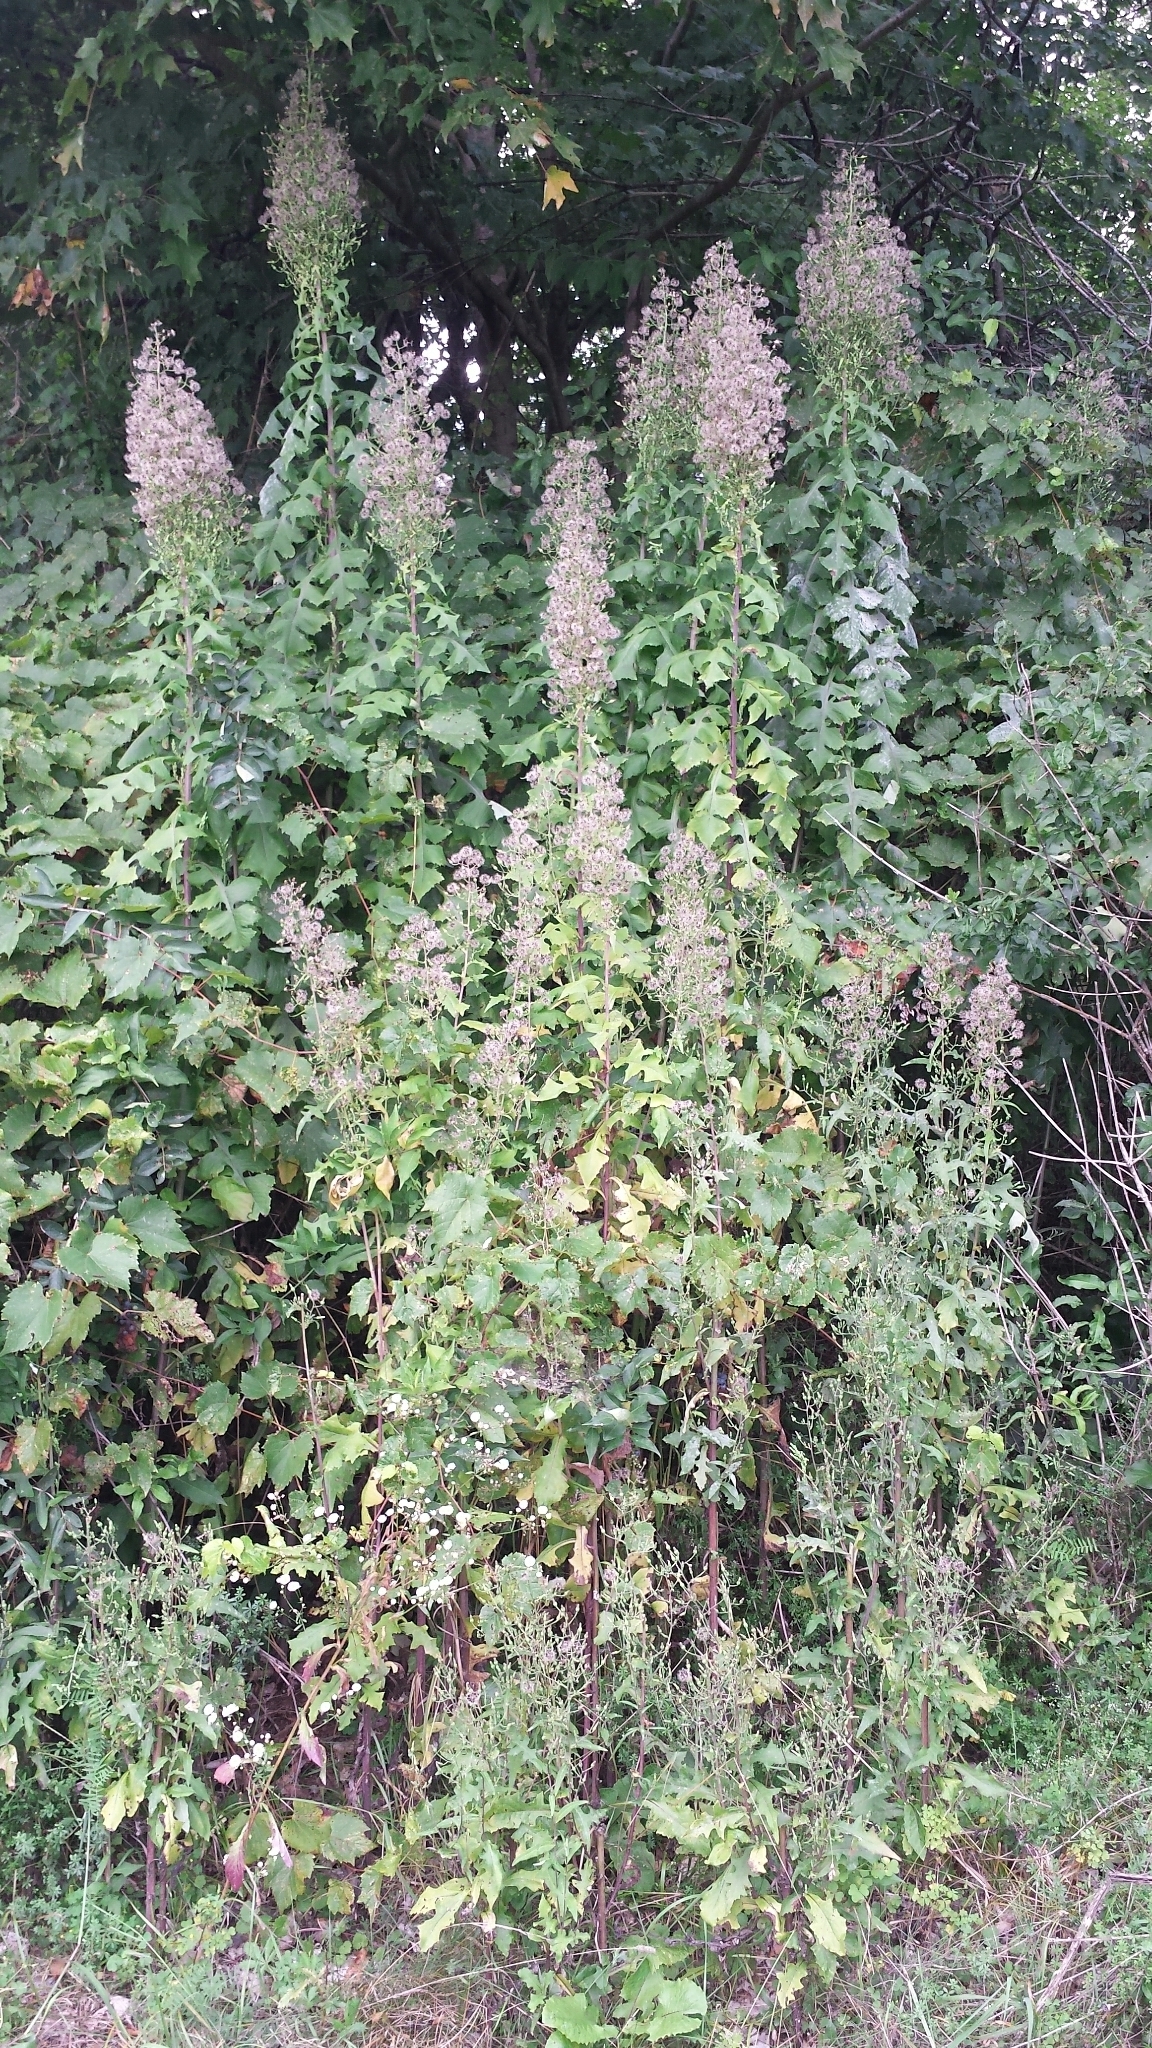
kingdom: Plantae
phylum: Tracheophyta
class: Magnoliopsida
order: Asterales
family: Asteraceae
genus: Lactuca
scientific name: Lactuca biennis
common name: Blue wood lettuce
